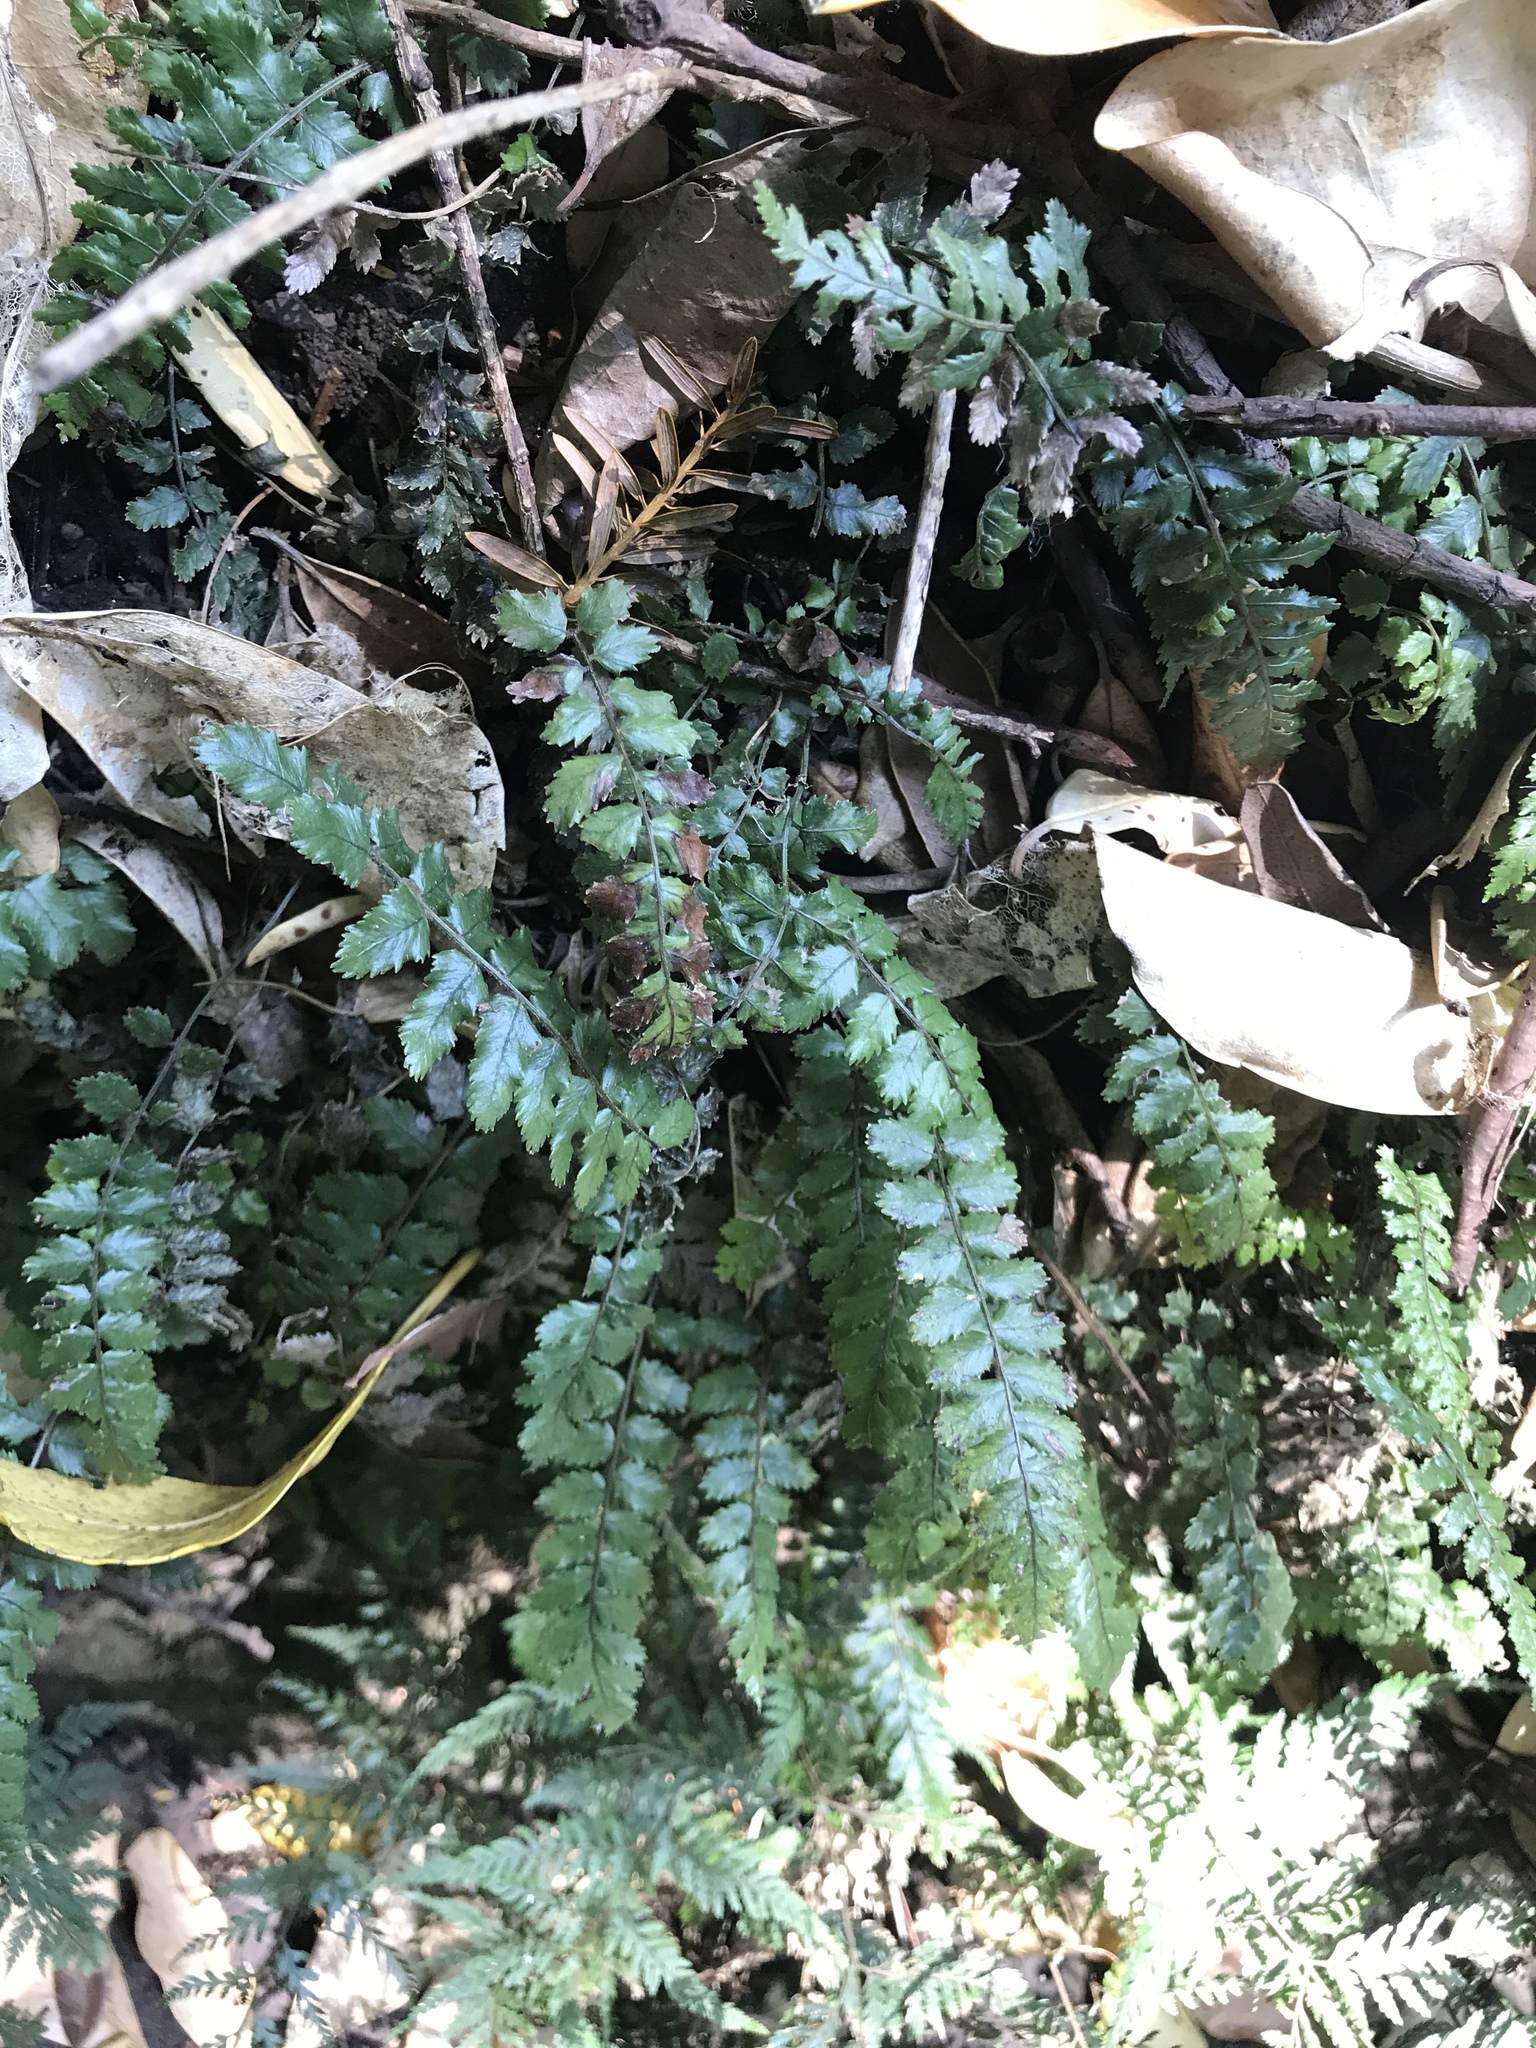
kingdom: Plantae
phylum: Tracheophyta
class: Polypodiopsida
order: Polypodiales
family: Blechnaceae
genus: Icarus
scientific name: Icarus filiformis
